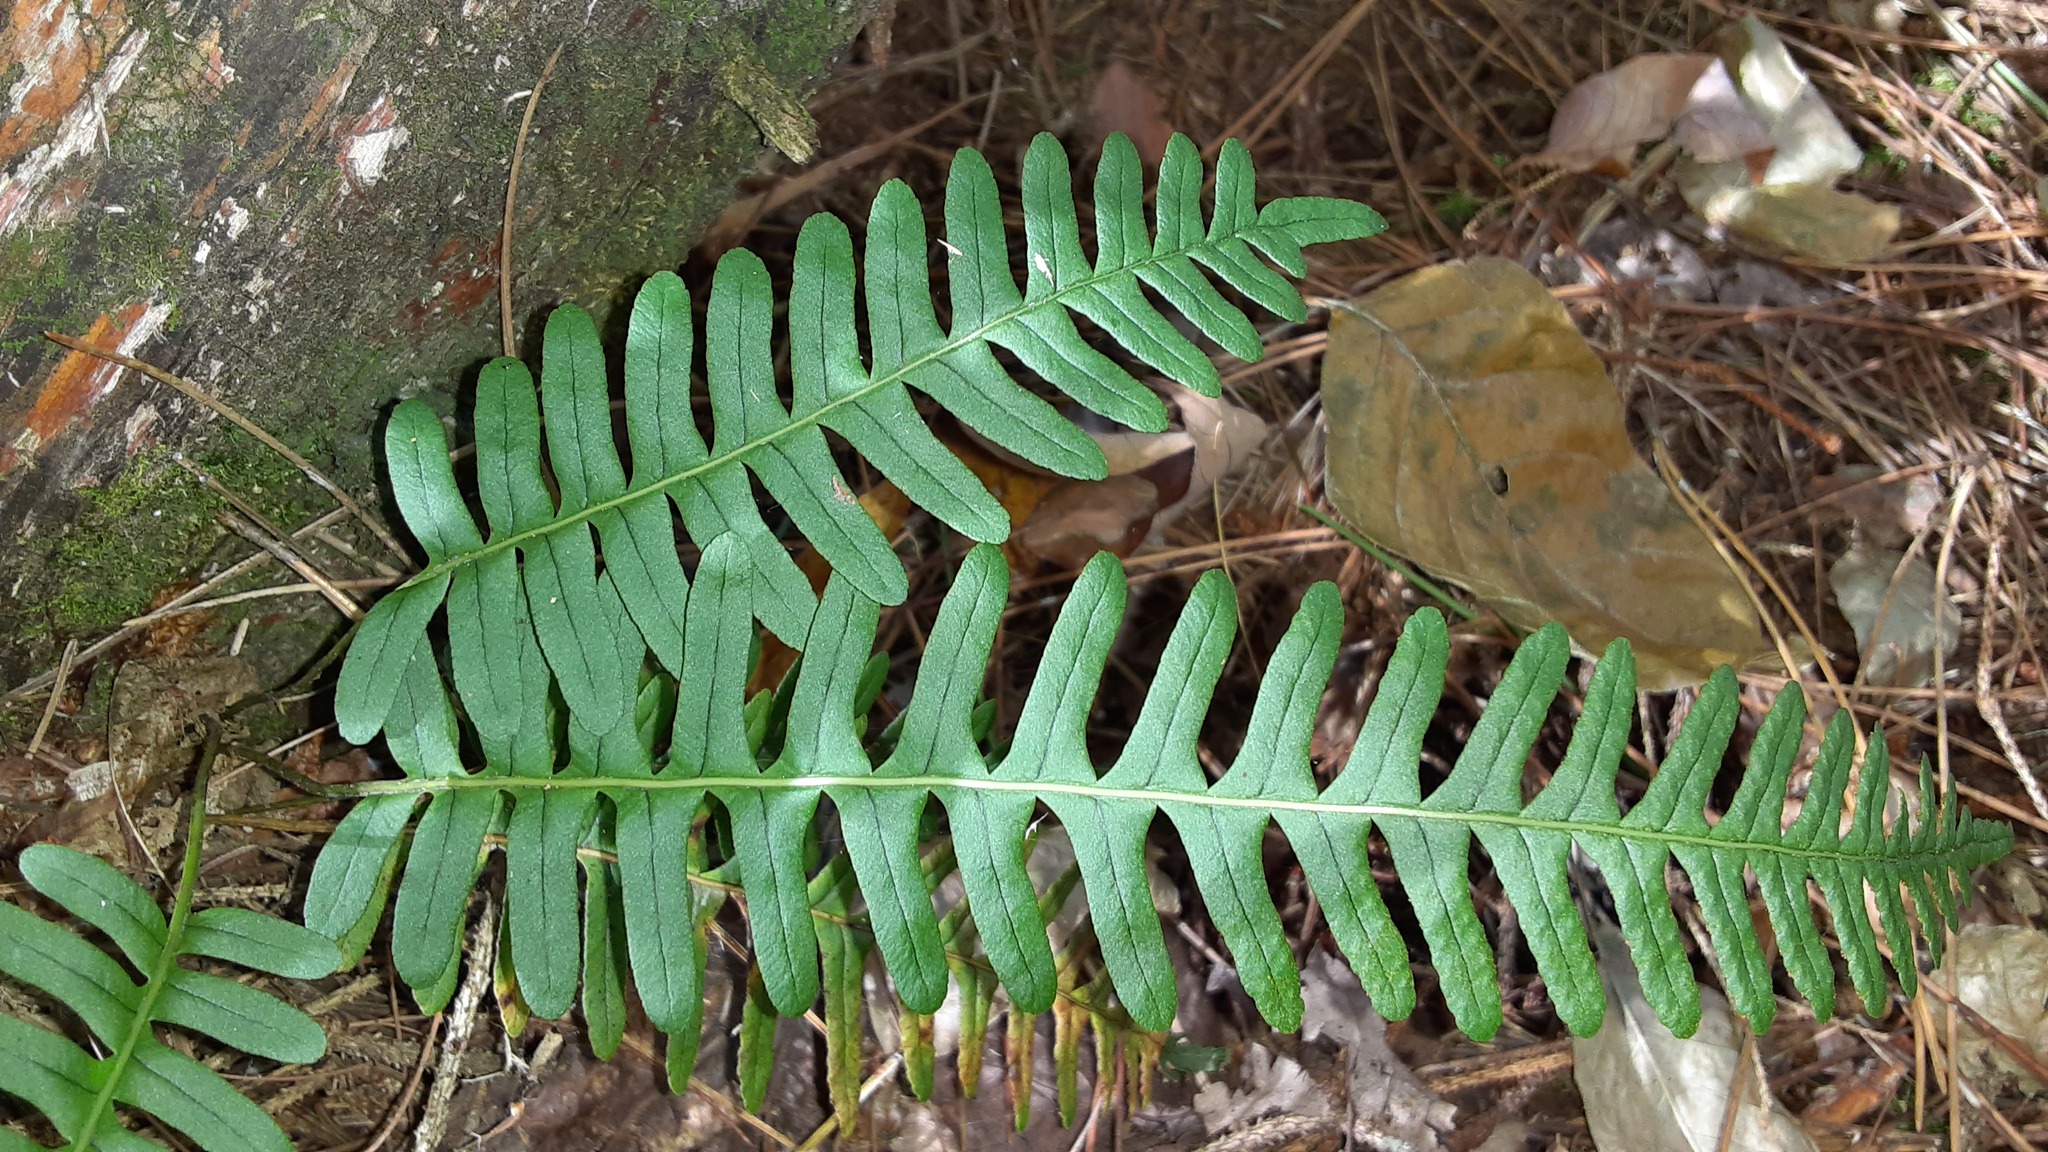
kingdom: Plantae
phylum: Tracheophyta
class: Polypodiopsida
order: Polypodiales
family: Polypodiaceae
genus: Polypodium
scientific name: Polypodium virginianum
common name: American wall fern
